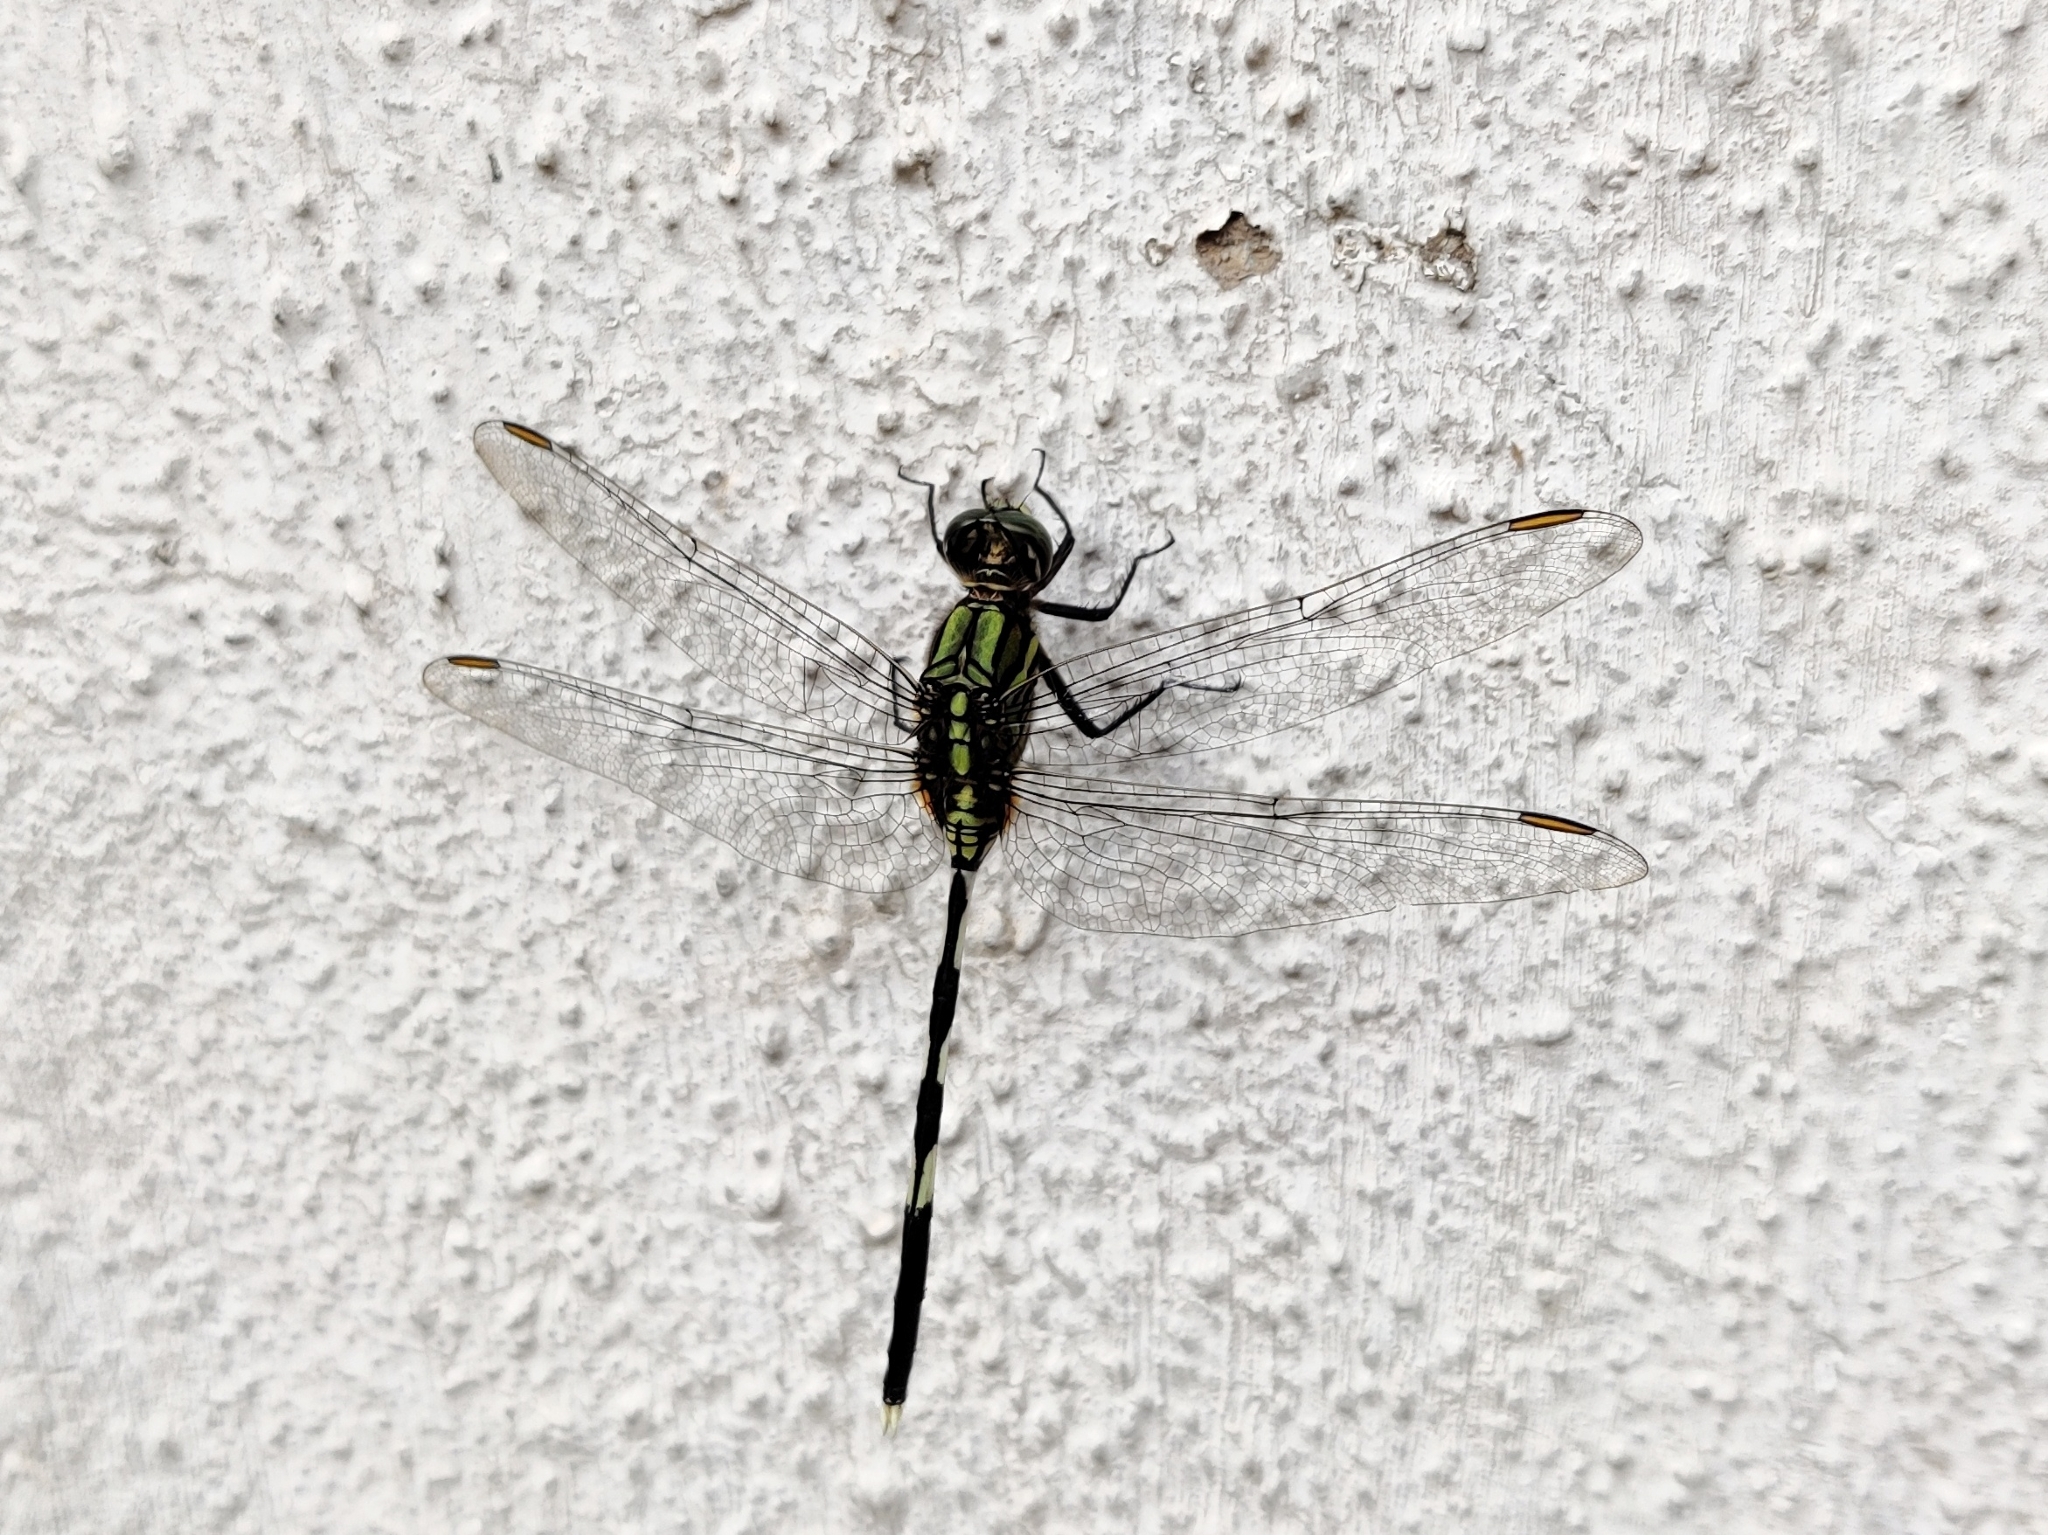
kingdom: Animalia
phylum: Arthropoda
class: Insecta
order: Odonata
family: Libellulidae
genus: Orthetrum
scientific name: Orthetrum sabina
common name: Slender skimmer
